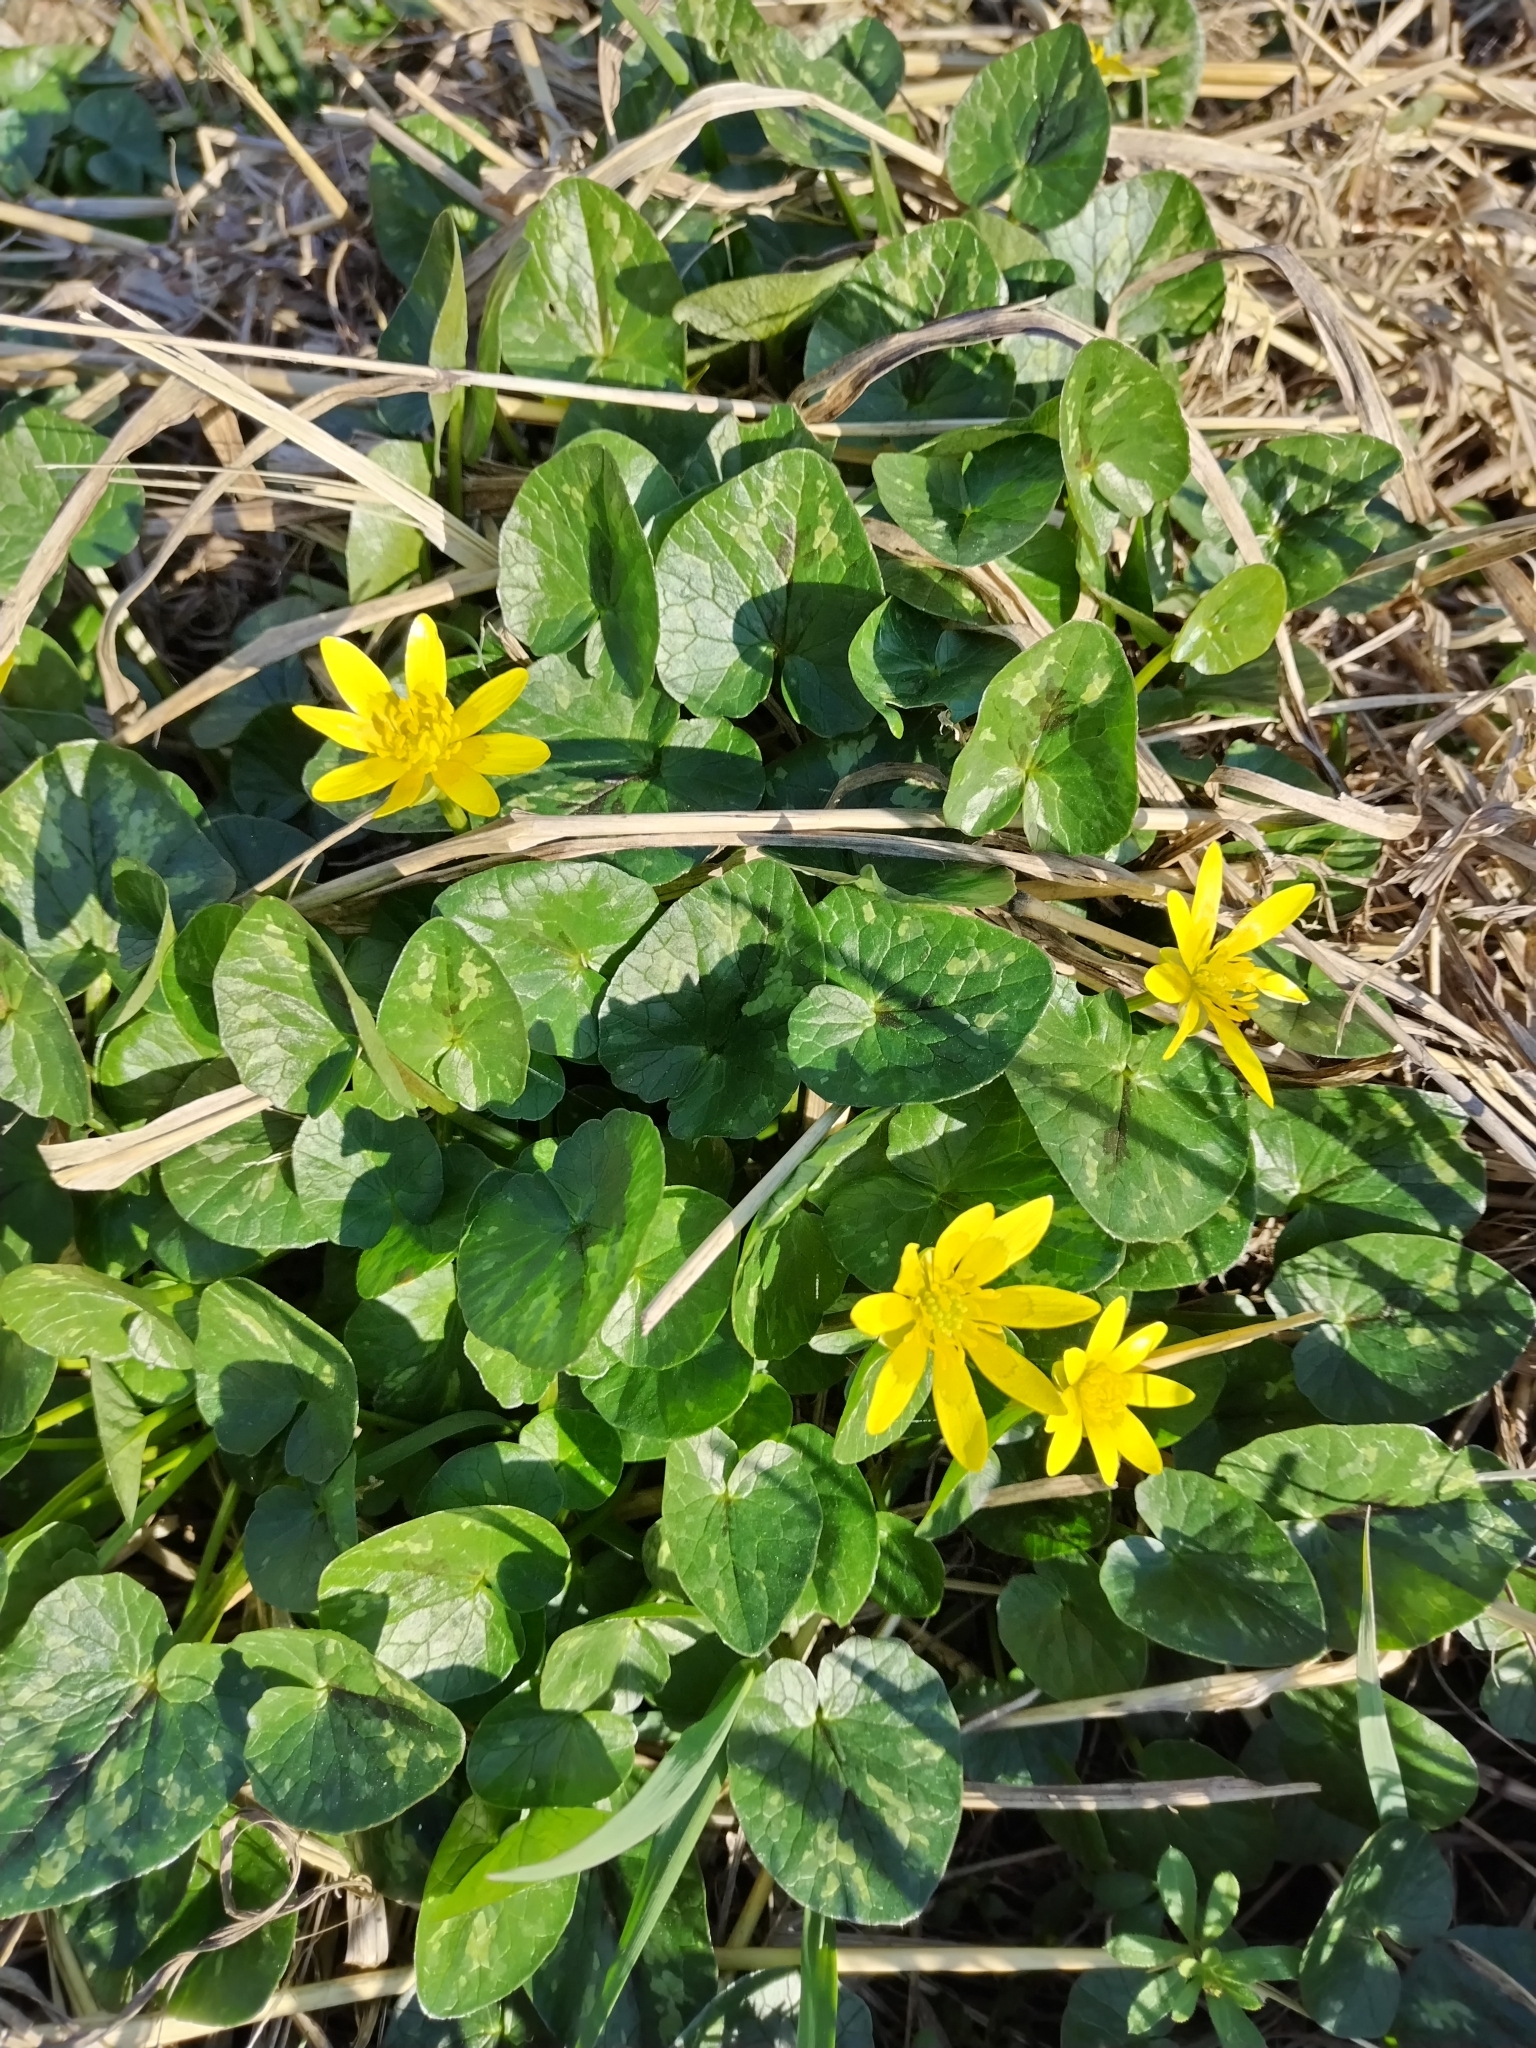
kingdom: Plantae
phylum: Tracheophyta
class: Magnoliopsida
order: Ranunculales
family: Ranunculaceae
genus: Ficaria
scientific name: Ficaria verna
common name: Lesser celandine
